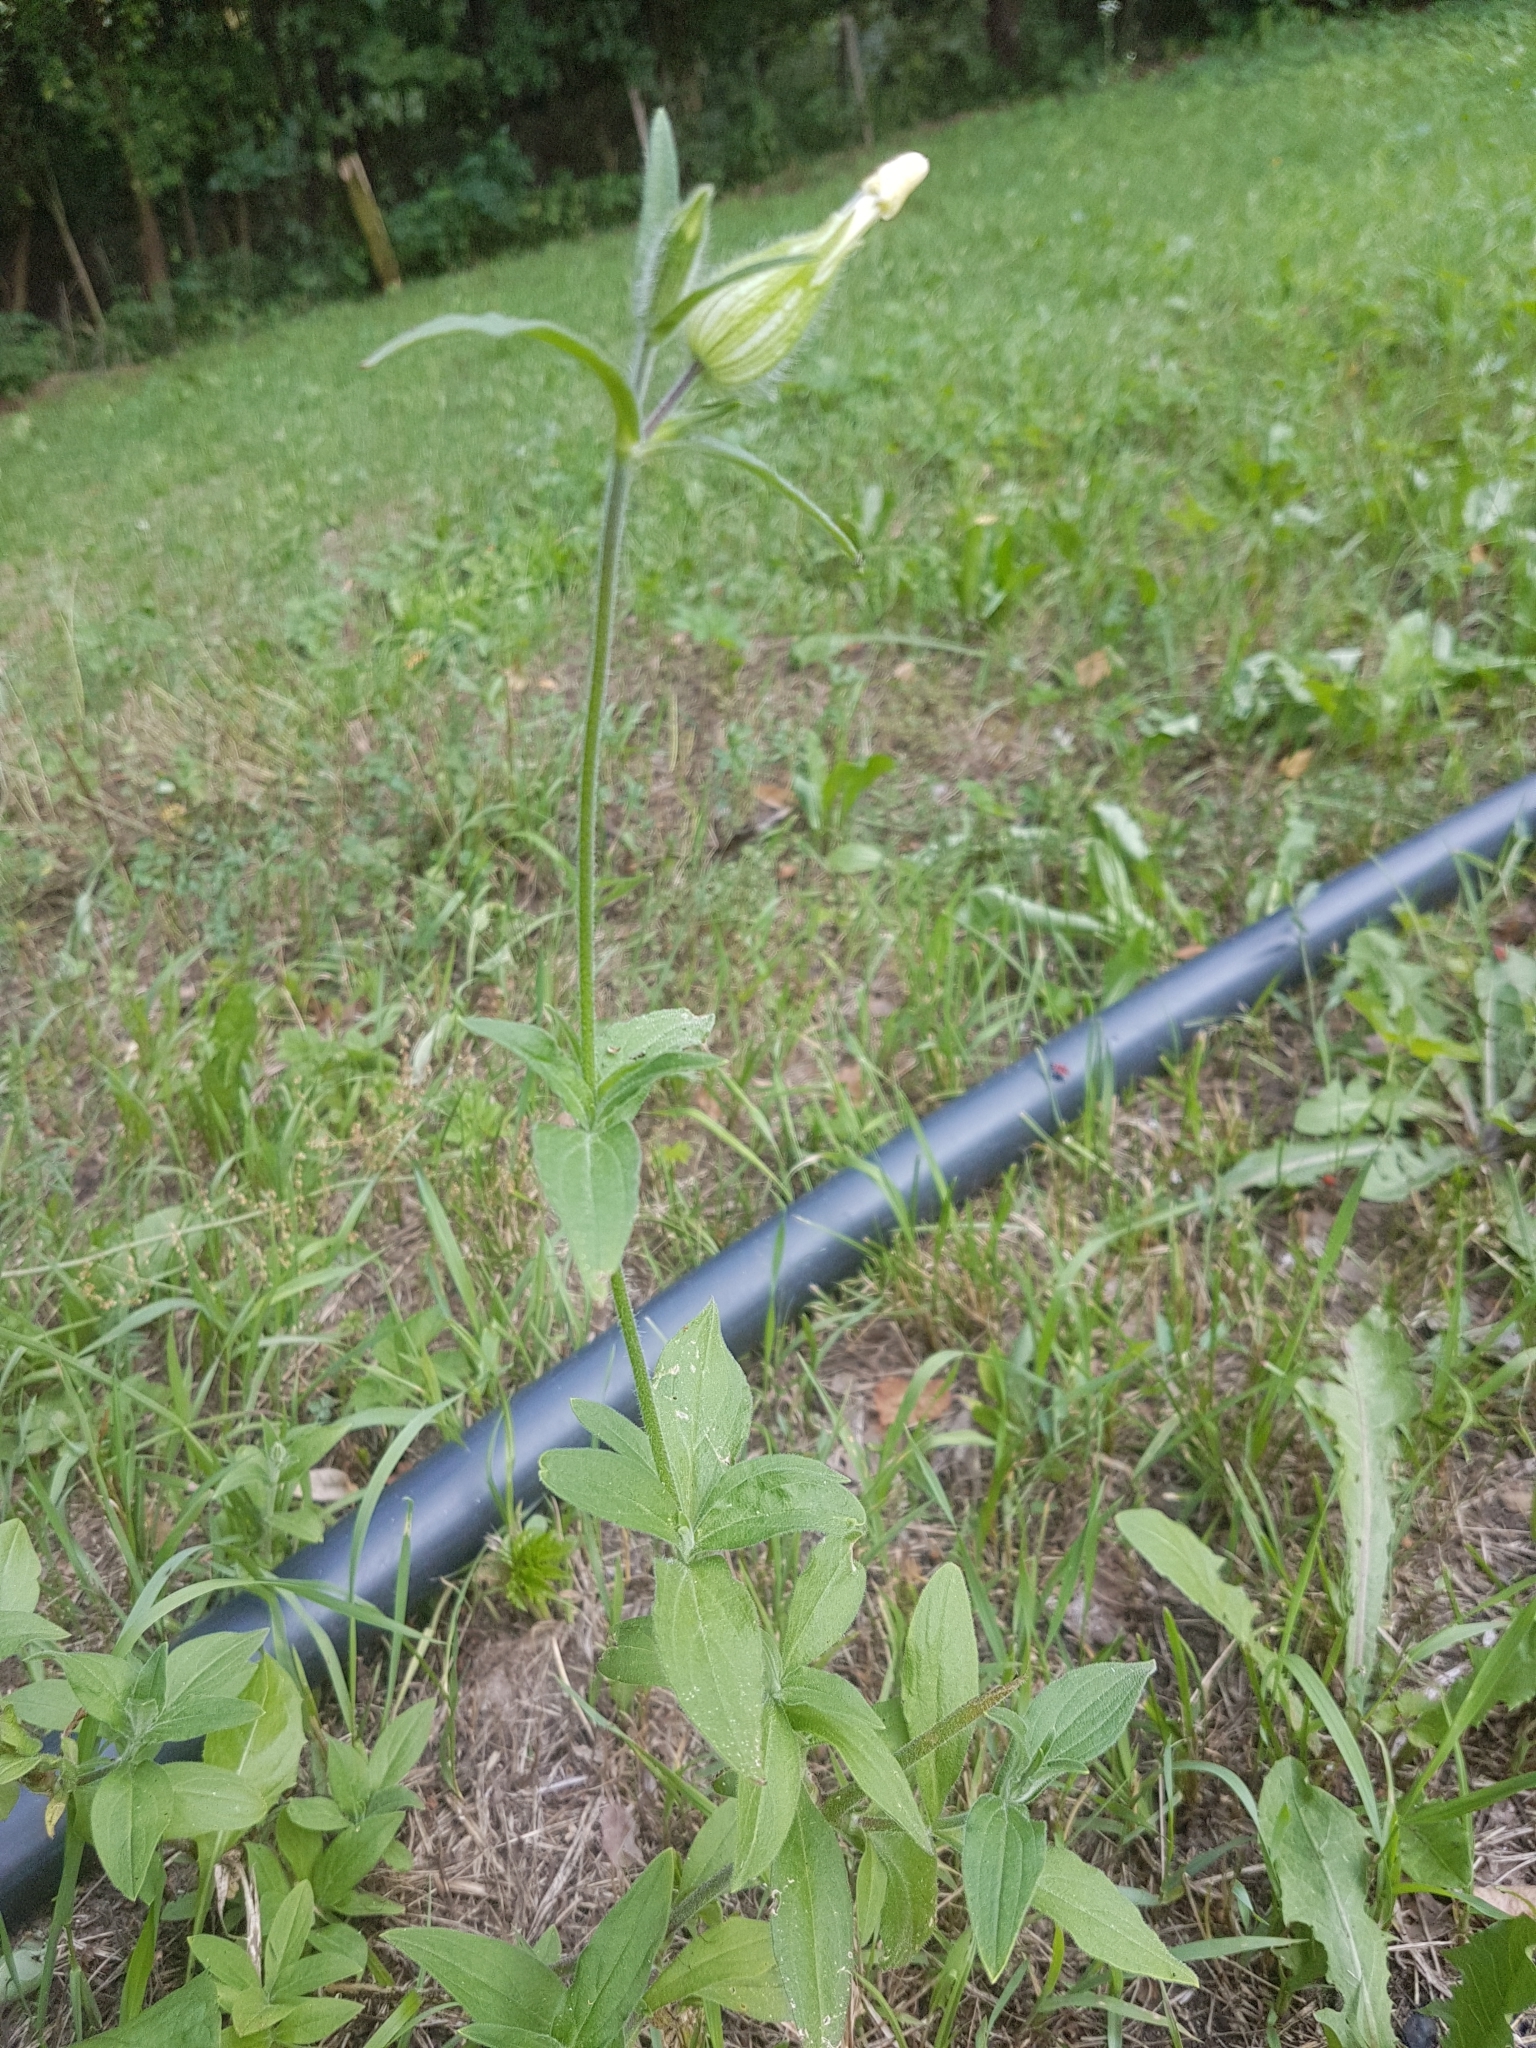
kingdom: Plantae
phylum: Tracheophyta
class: Magnoliopsida
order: Caryophyllales
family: Caryophyllaceae
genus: Silene
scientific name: Silene latifolia
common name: White campion
